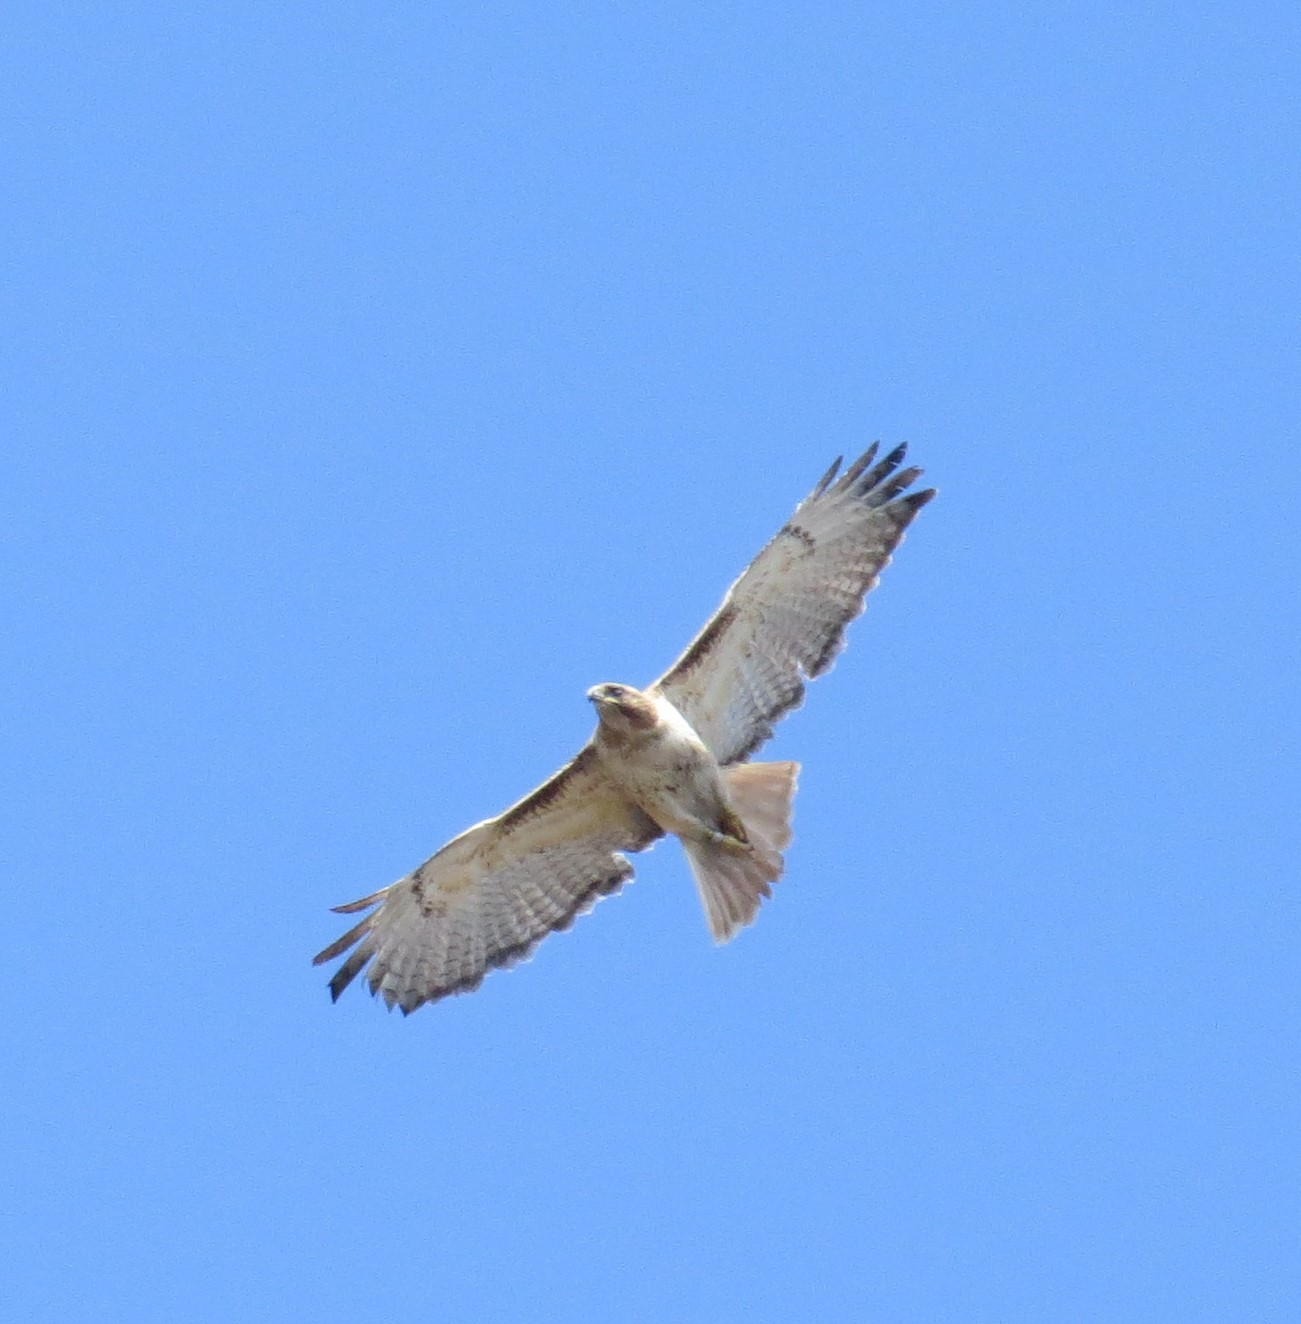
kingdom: Animalia
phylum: Chordata
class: Aves
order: Accipitriformes
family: Accipitridae
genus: Buteo
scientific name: Buteo jamaicensis
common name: Red-tailed hawk
